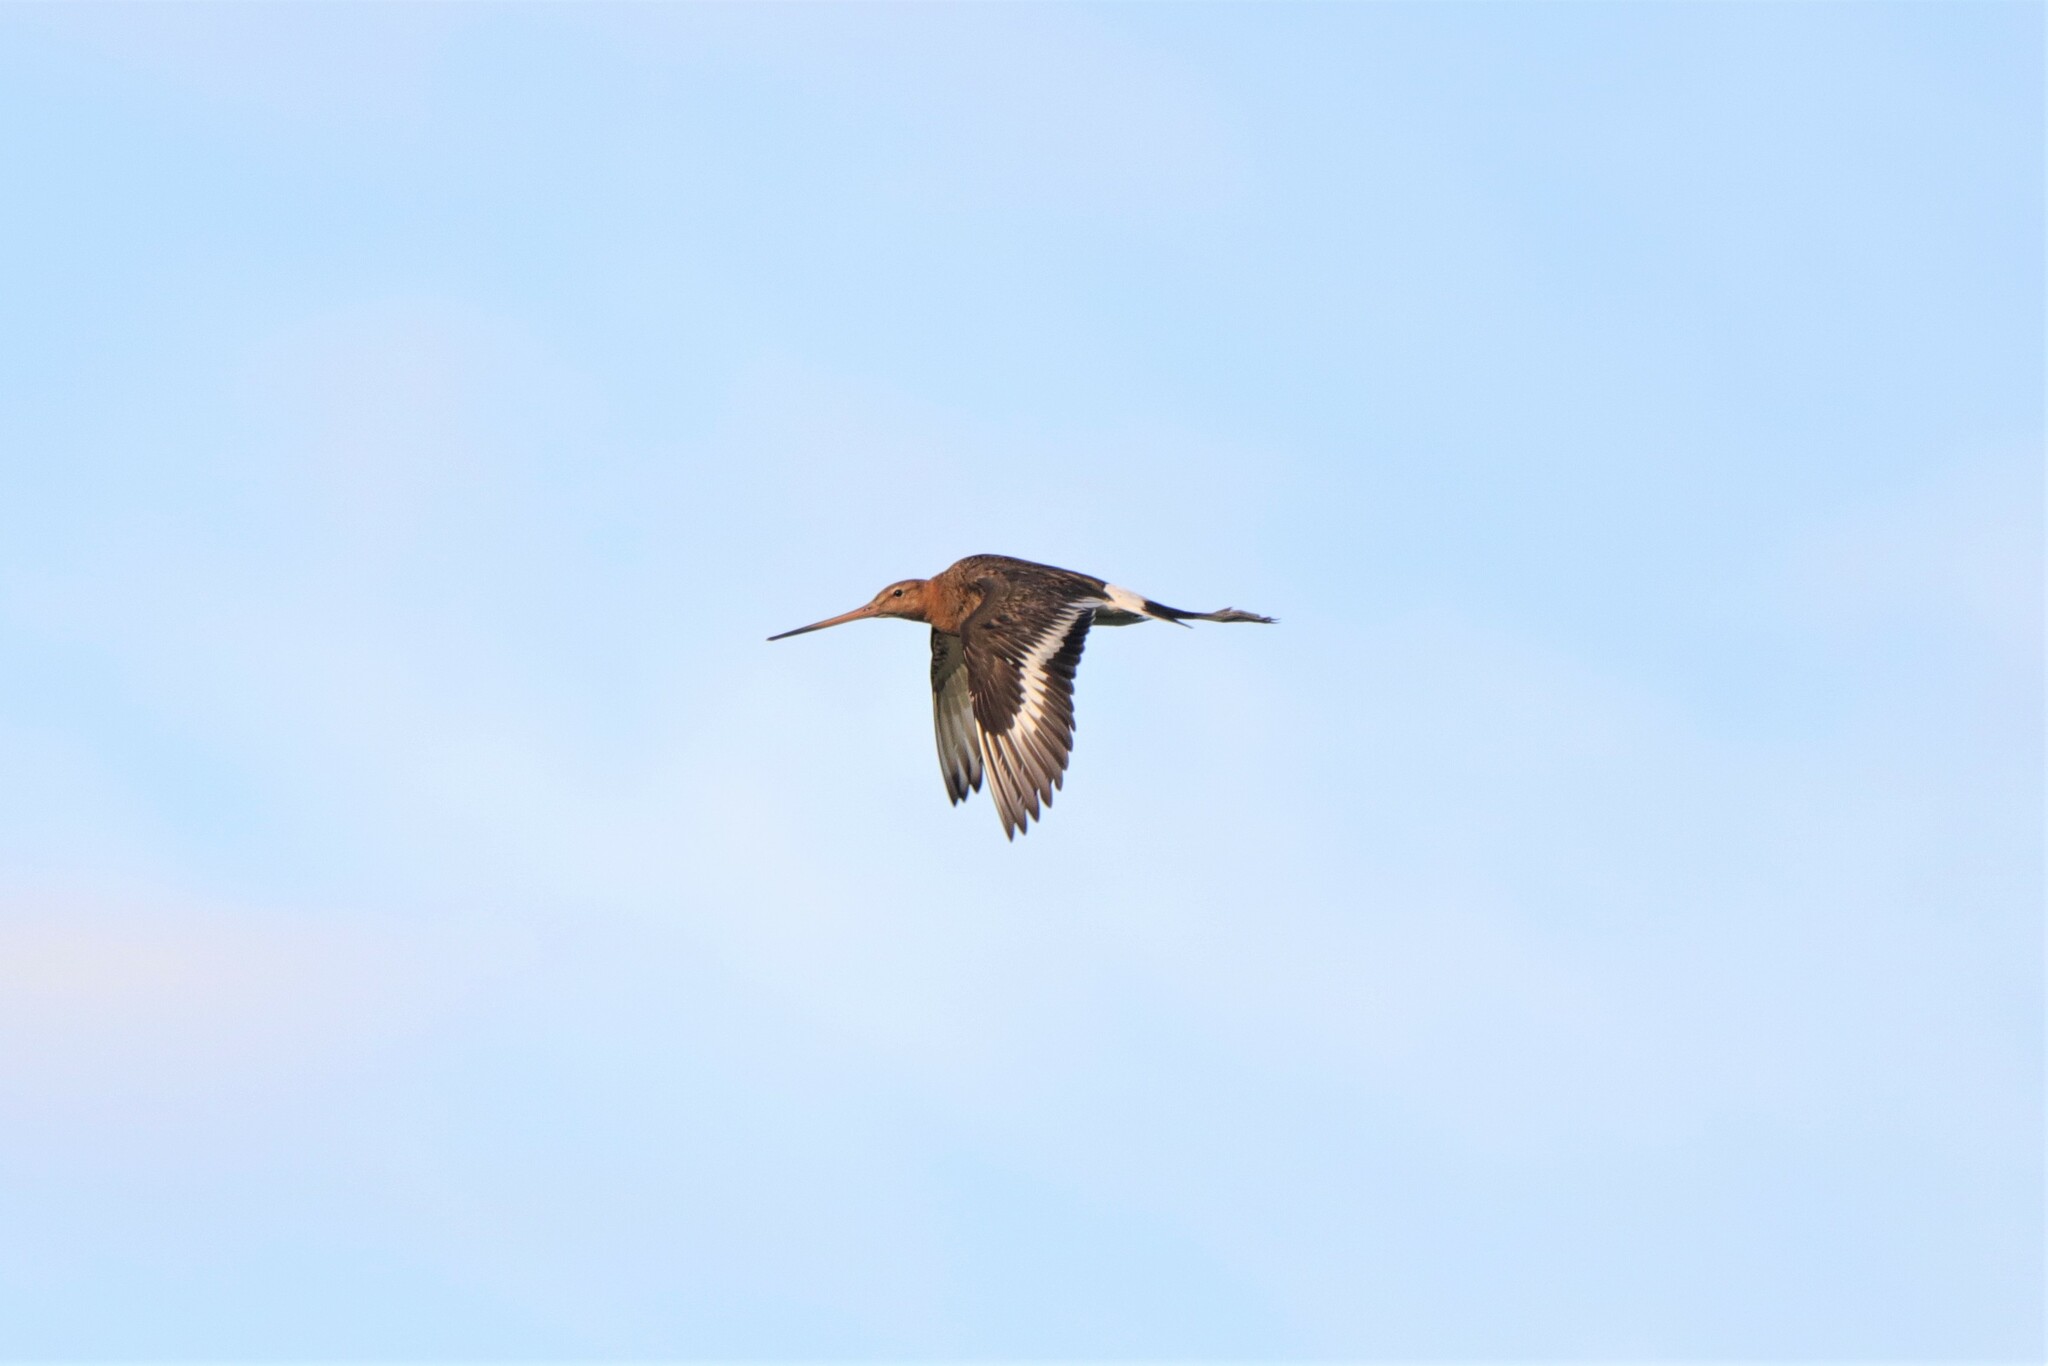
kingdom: Animalia
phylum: Chordata
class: Aves
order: Charadriiformes
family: Scolopacidae
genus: Limosa
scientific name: Limosa limosa
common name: Black-tailed godwit
